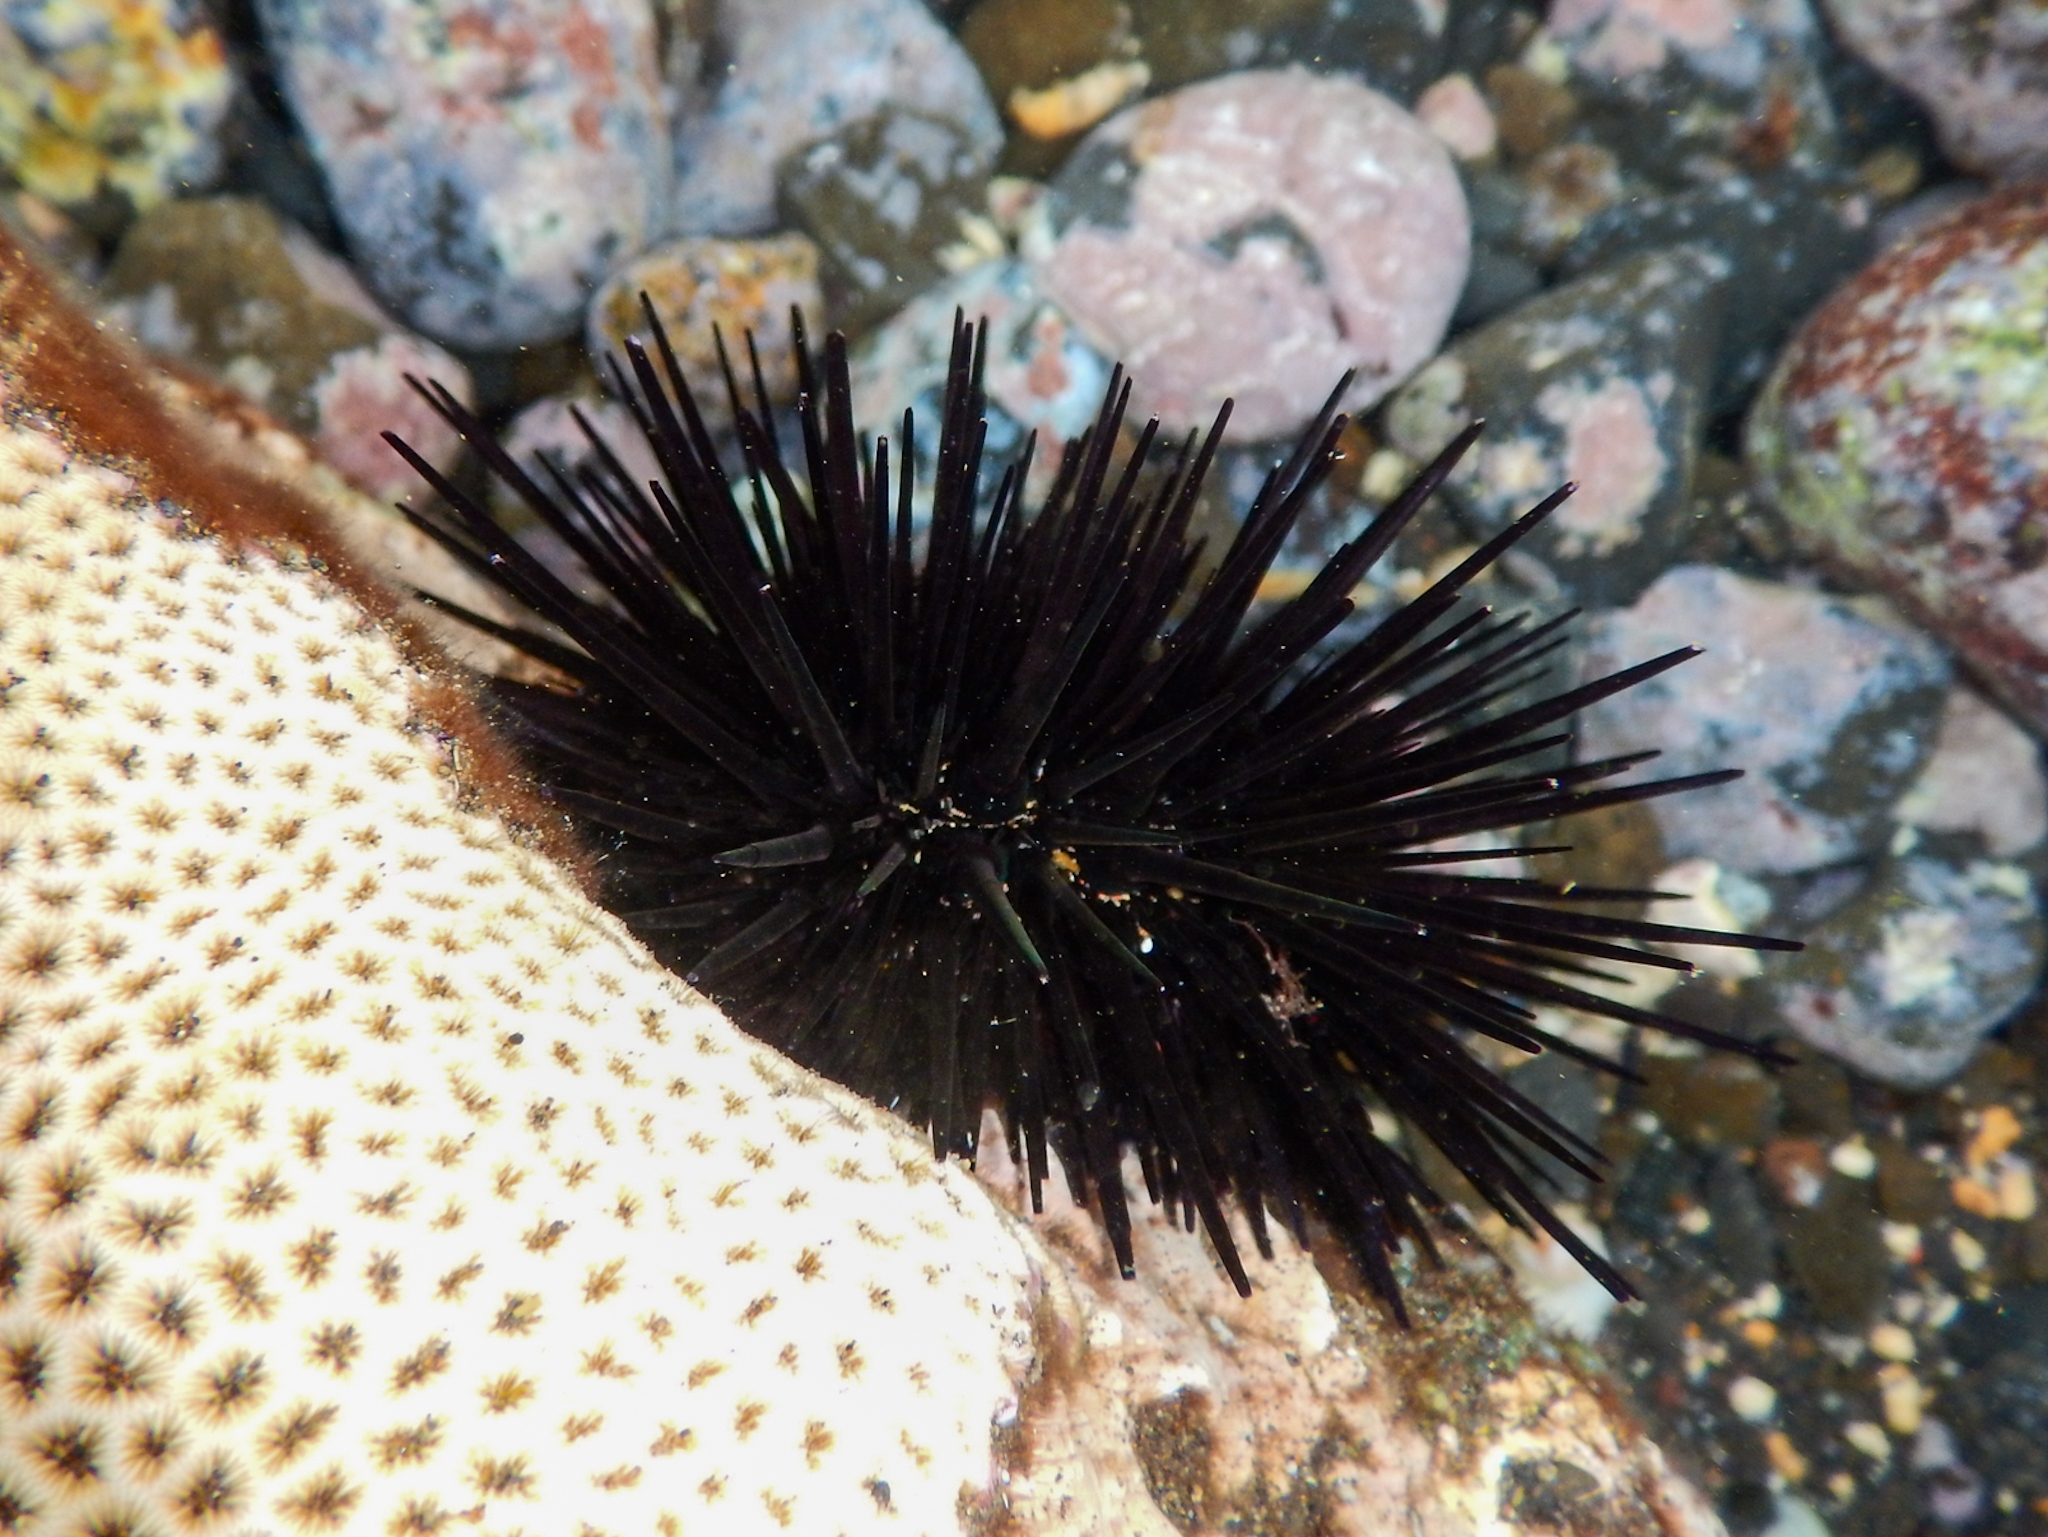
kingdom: Animalia
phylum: Echinodermata
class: Echinoidea
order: Camarodonta
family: Echinometridae
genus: Echinometra
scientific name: Echinometra lucunter
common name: Rock urchin
